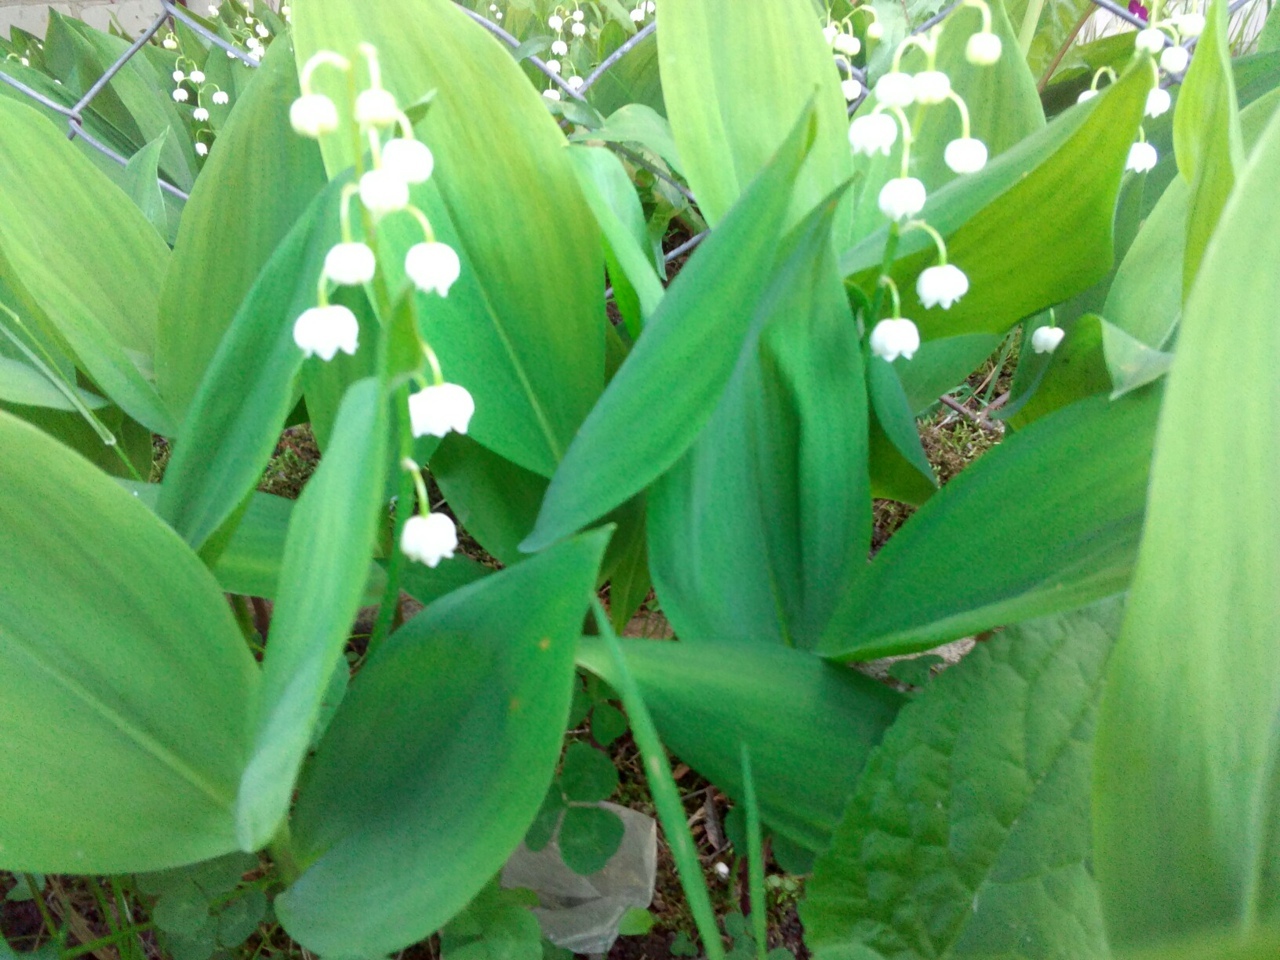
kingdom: Plantae
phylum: Tracheophyta
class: Liliopsida
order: Asparagales
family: Asparagaceae
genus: Convallaria
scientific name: Convallaria majalis
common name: Lily-of-the-valley
